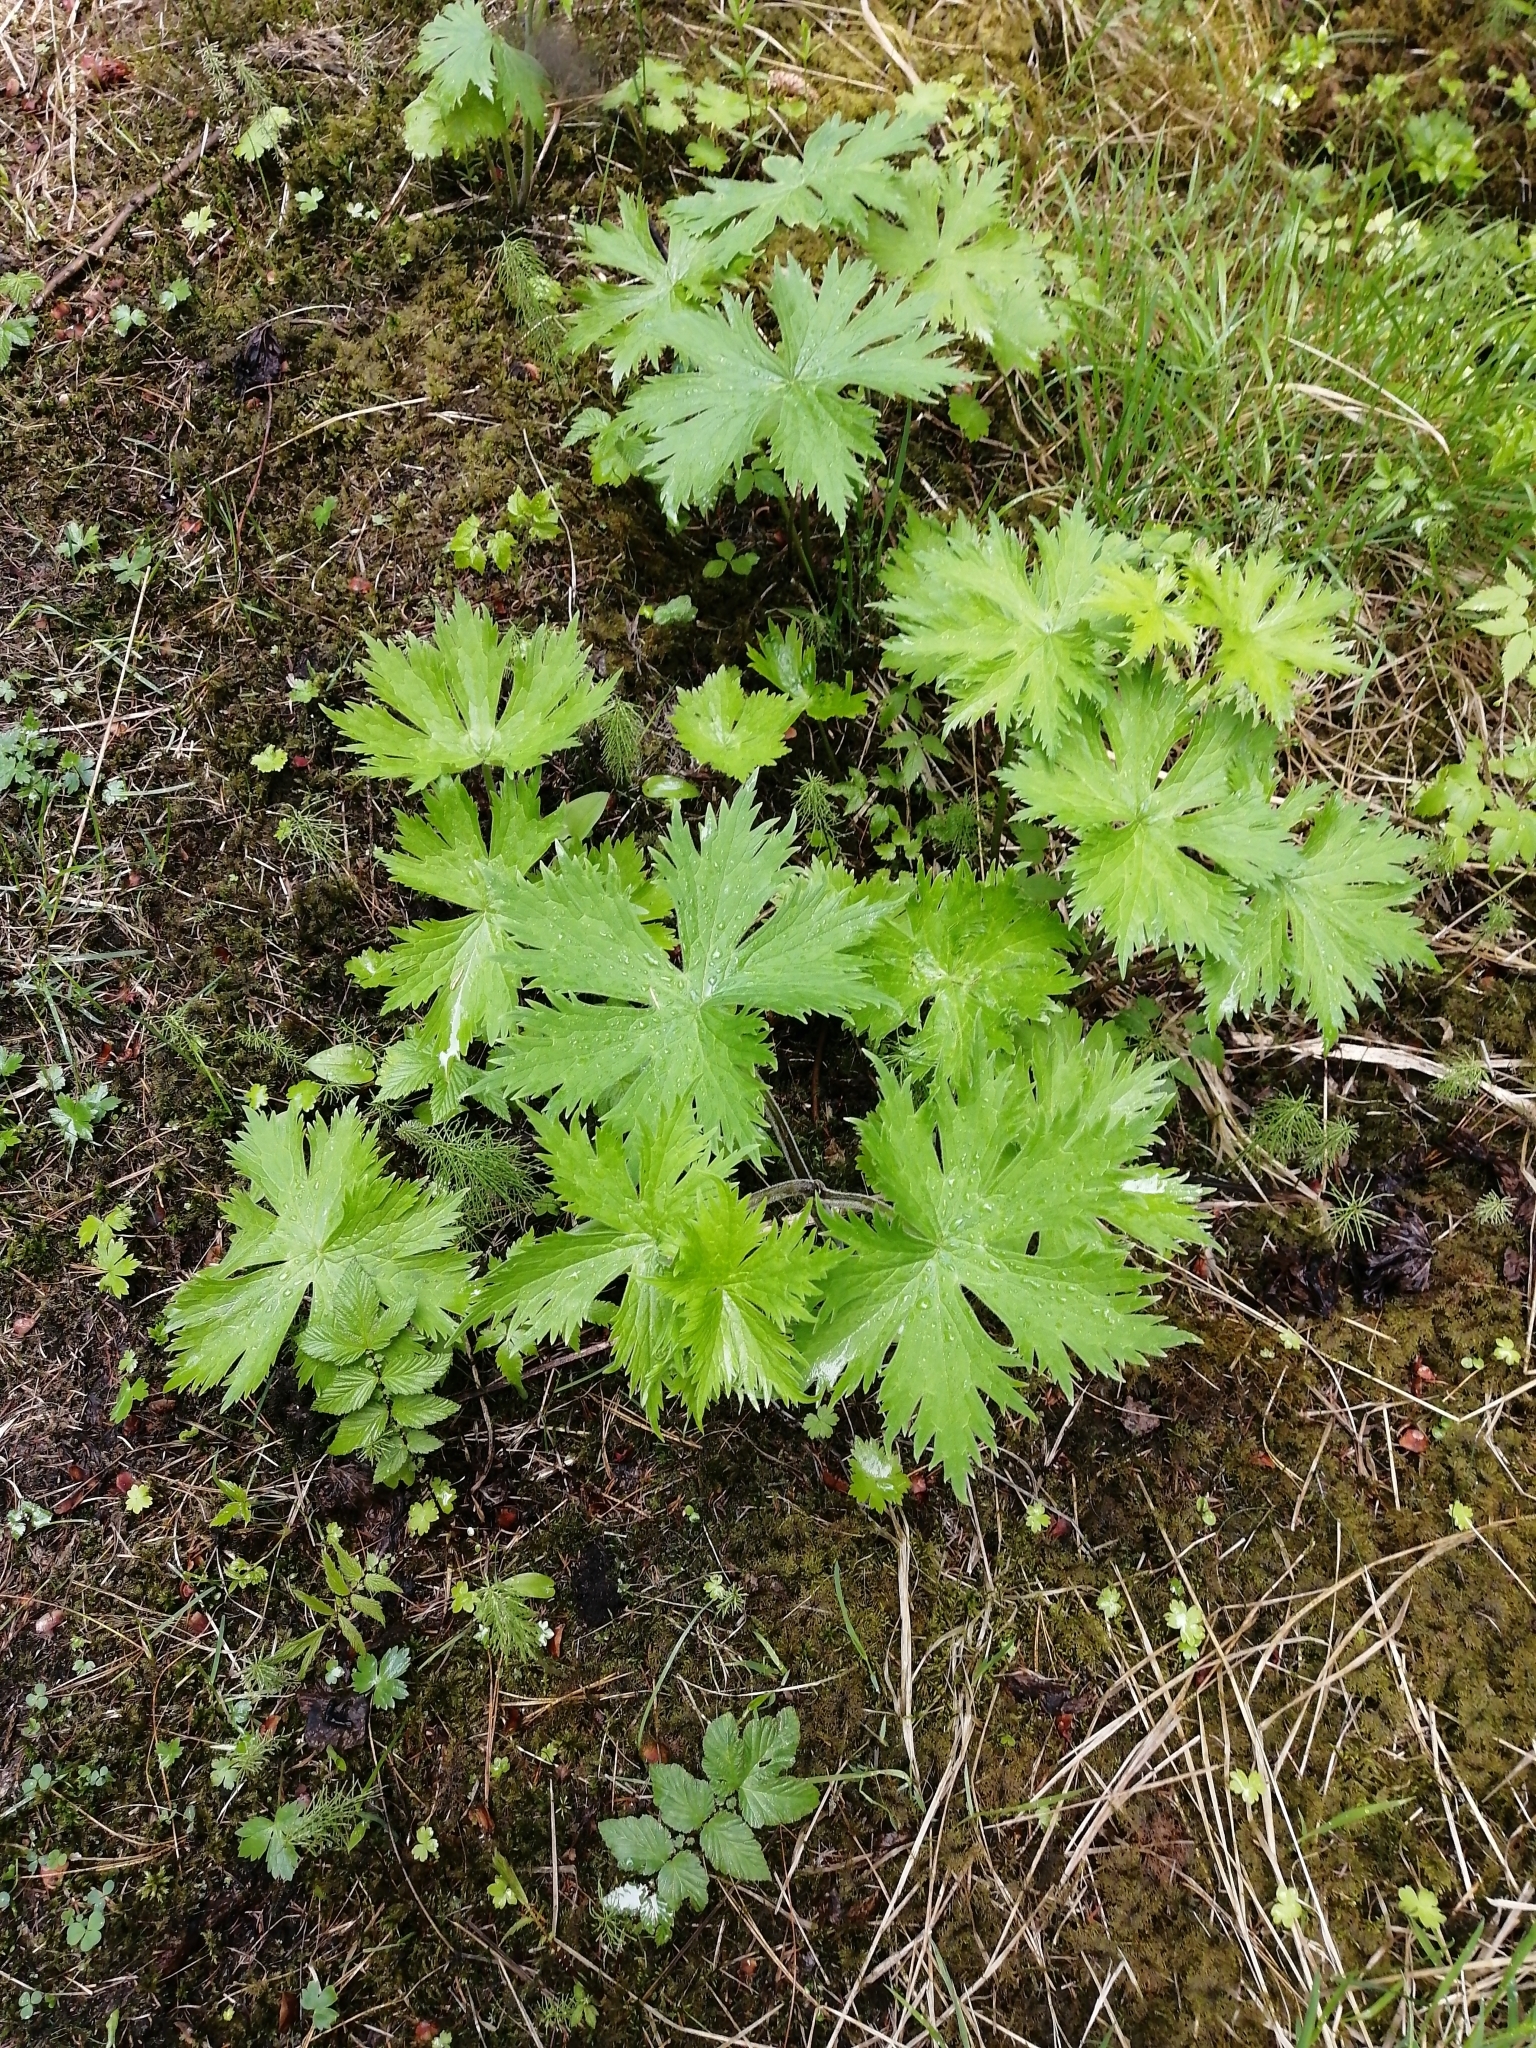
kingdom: Plantae
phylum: Tracheophyta
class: Magnoliopsida
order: Ranunculales
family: Ranunculaceae
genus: Aconitum
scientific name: Aconitum septentrionale
